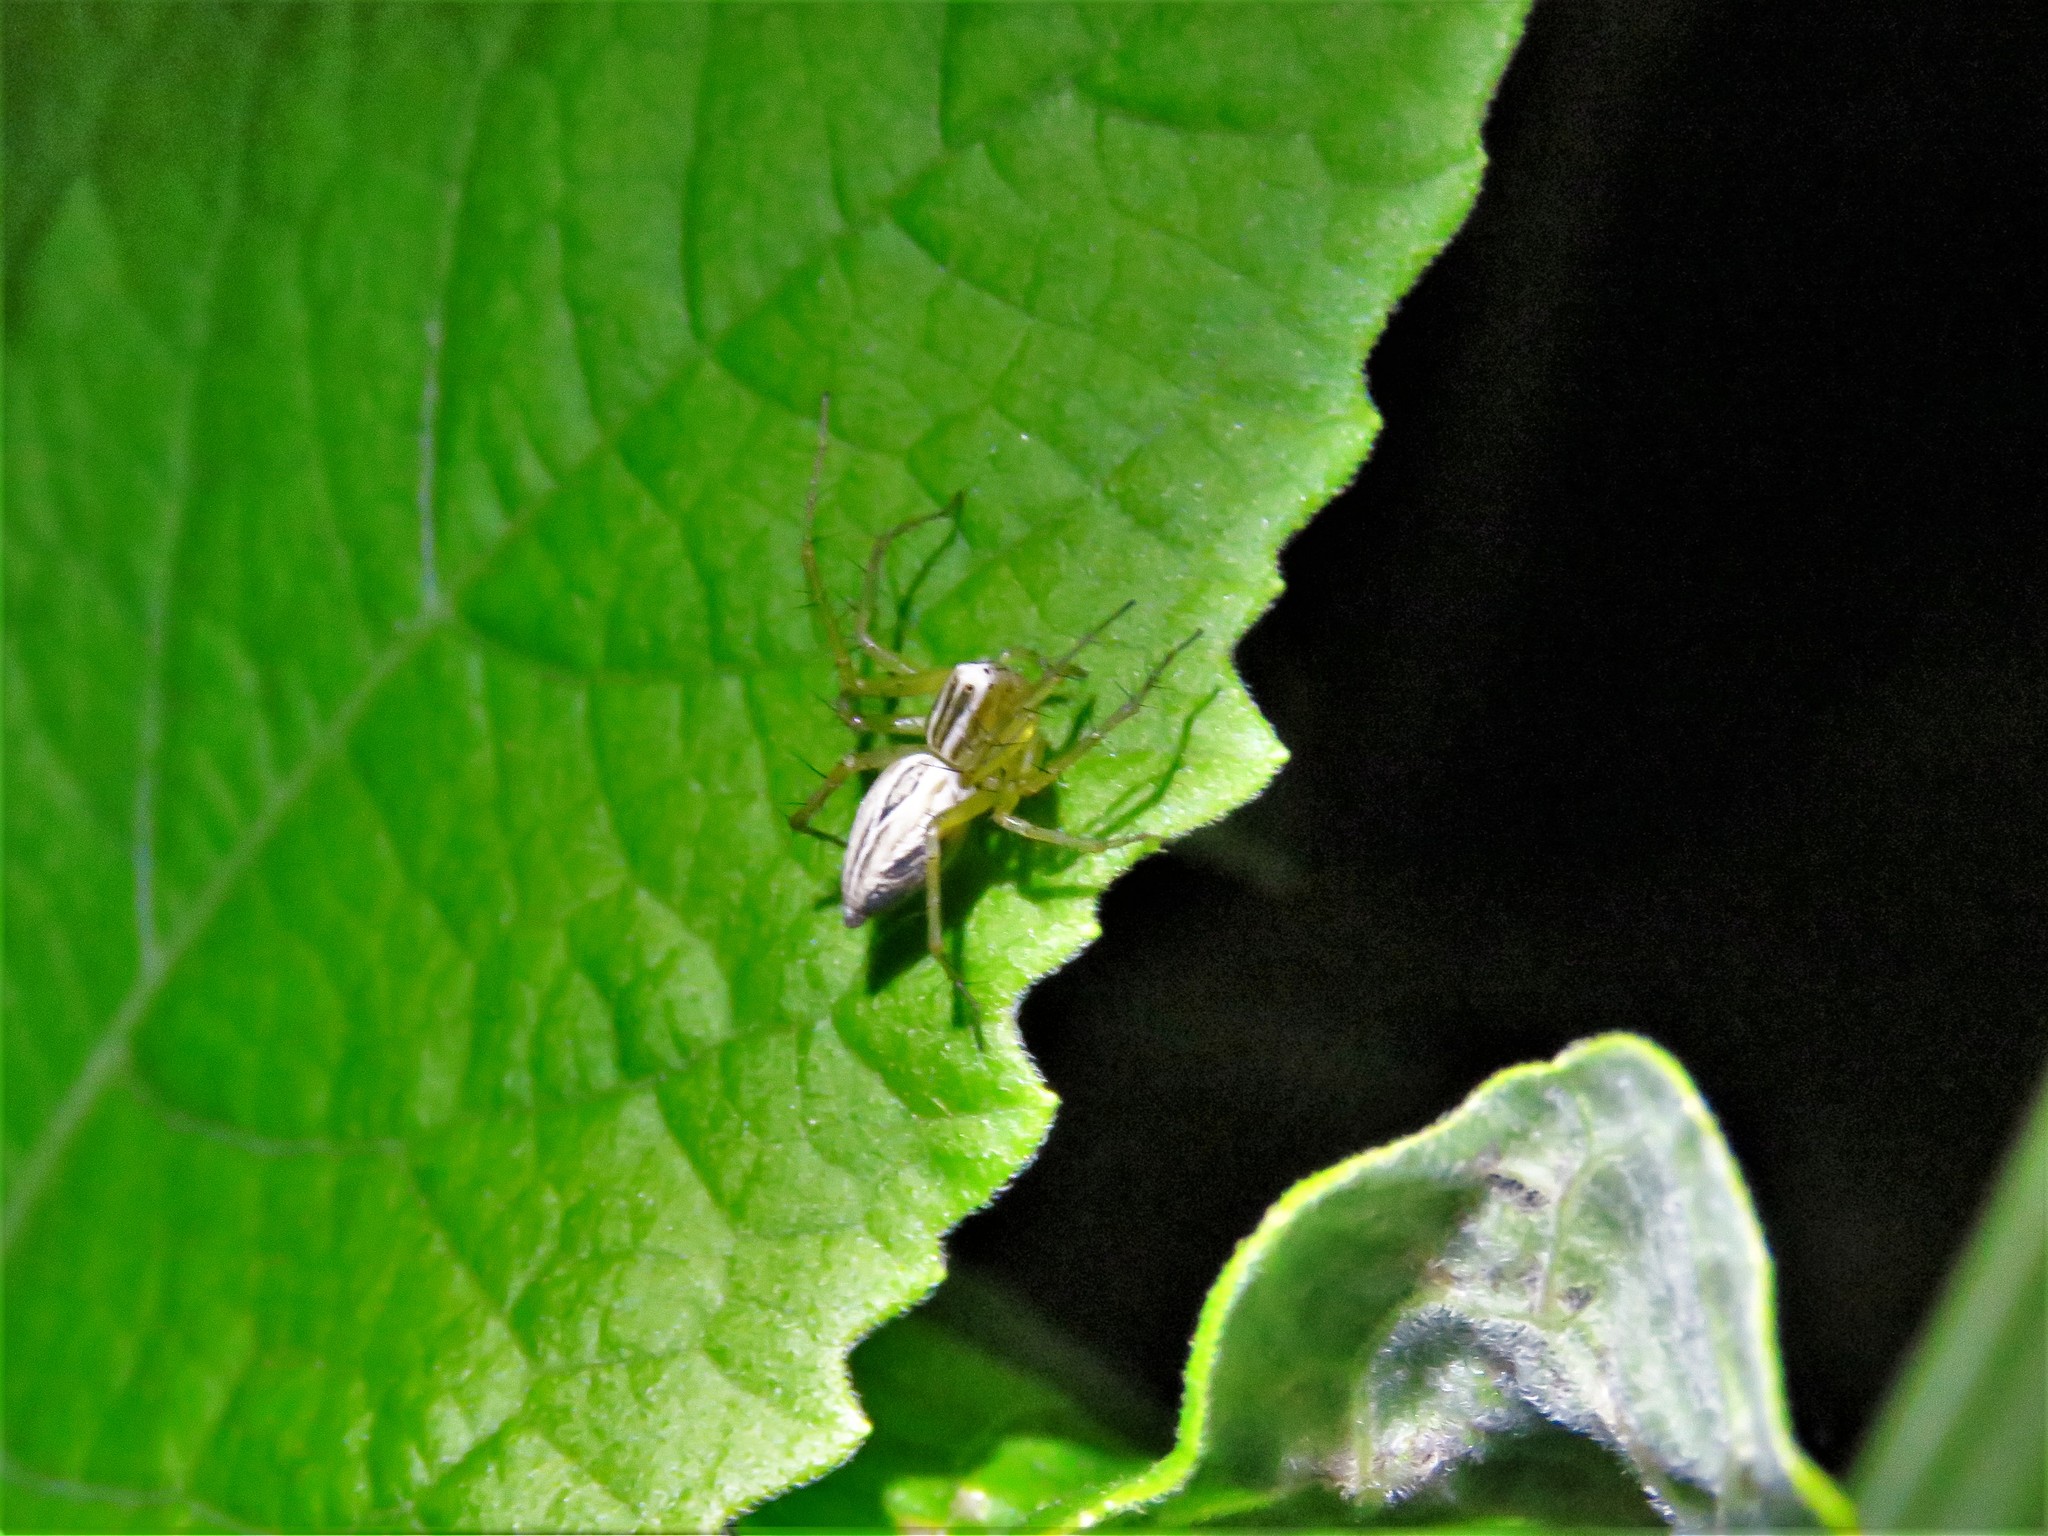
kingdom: Animalia
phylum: Arthropoda
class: Arachnida
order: Araneae
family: Oxyopidae
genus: Oxyopes
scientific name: Oxyopes salticus
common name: Lynx spiders
